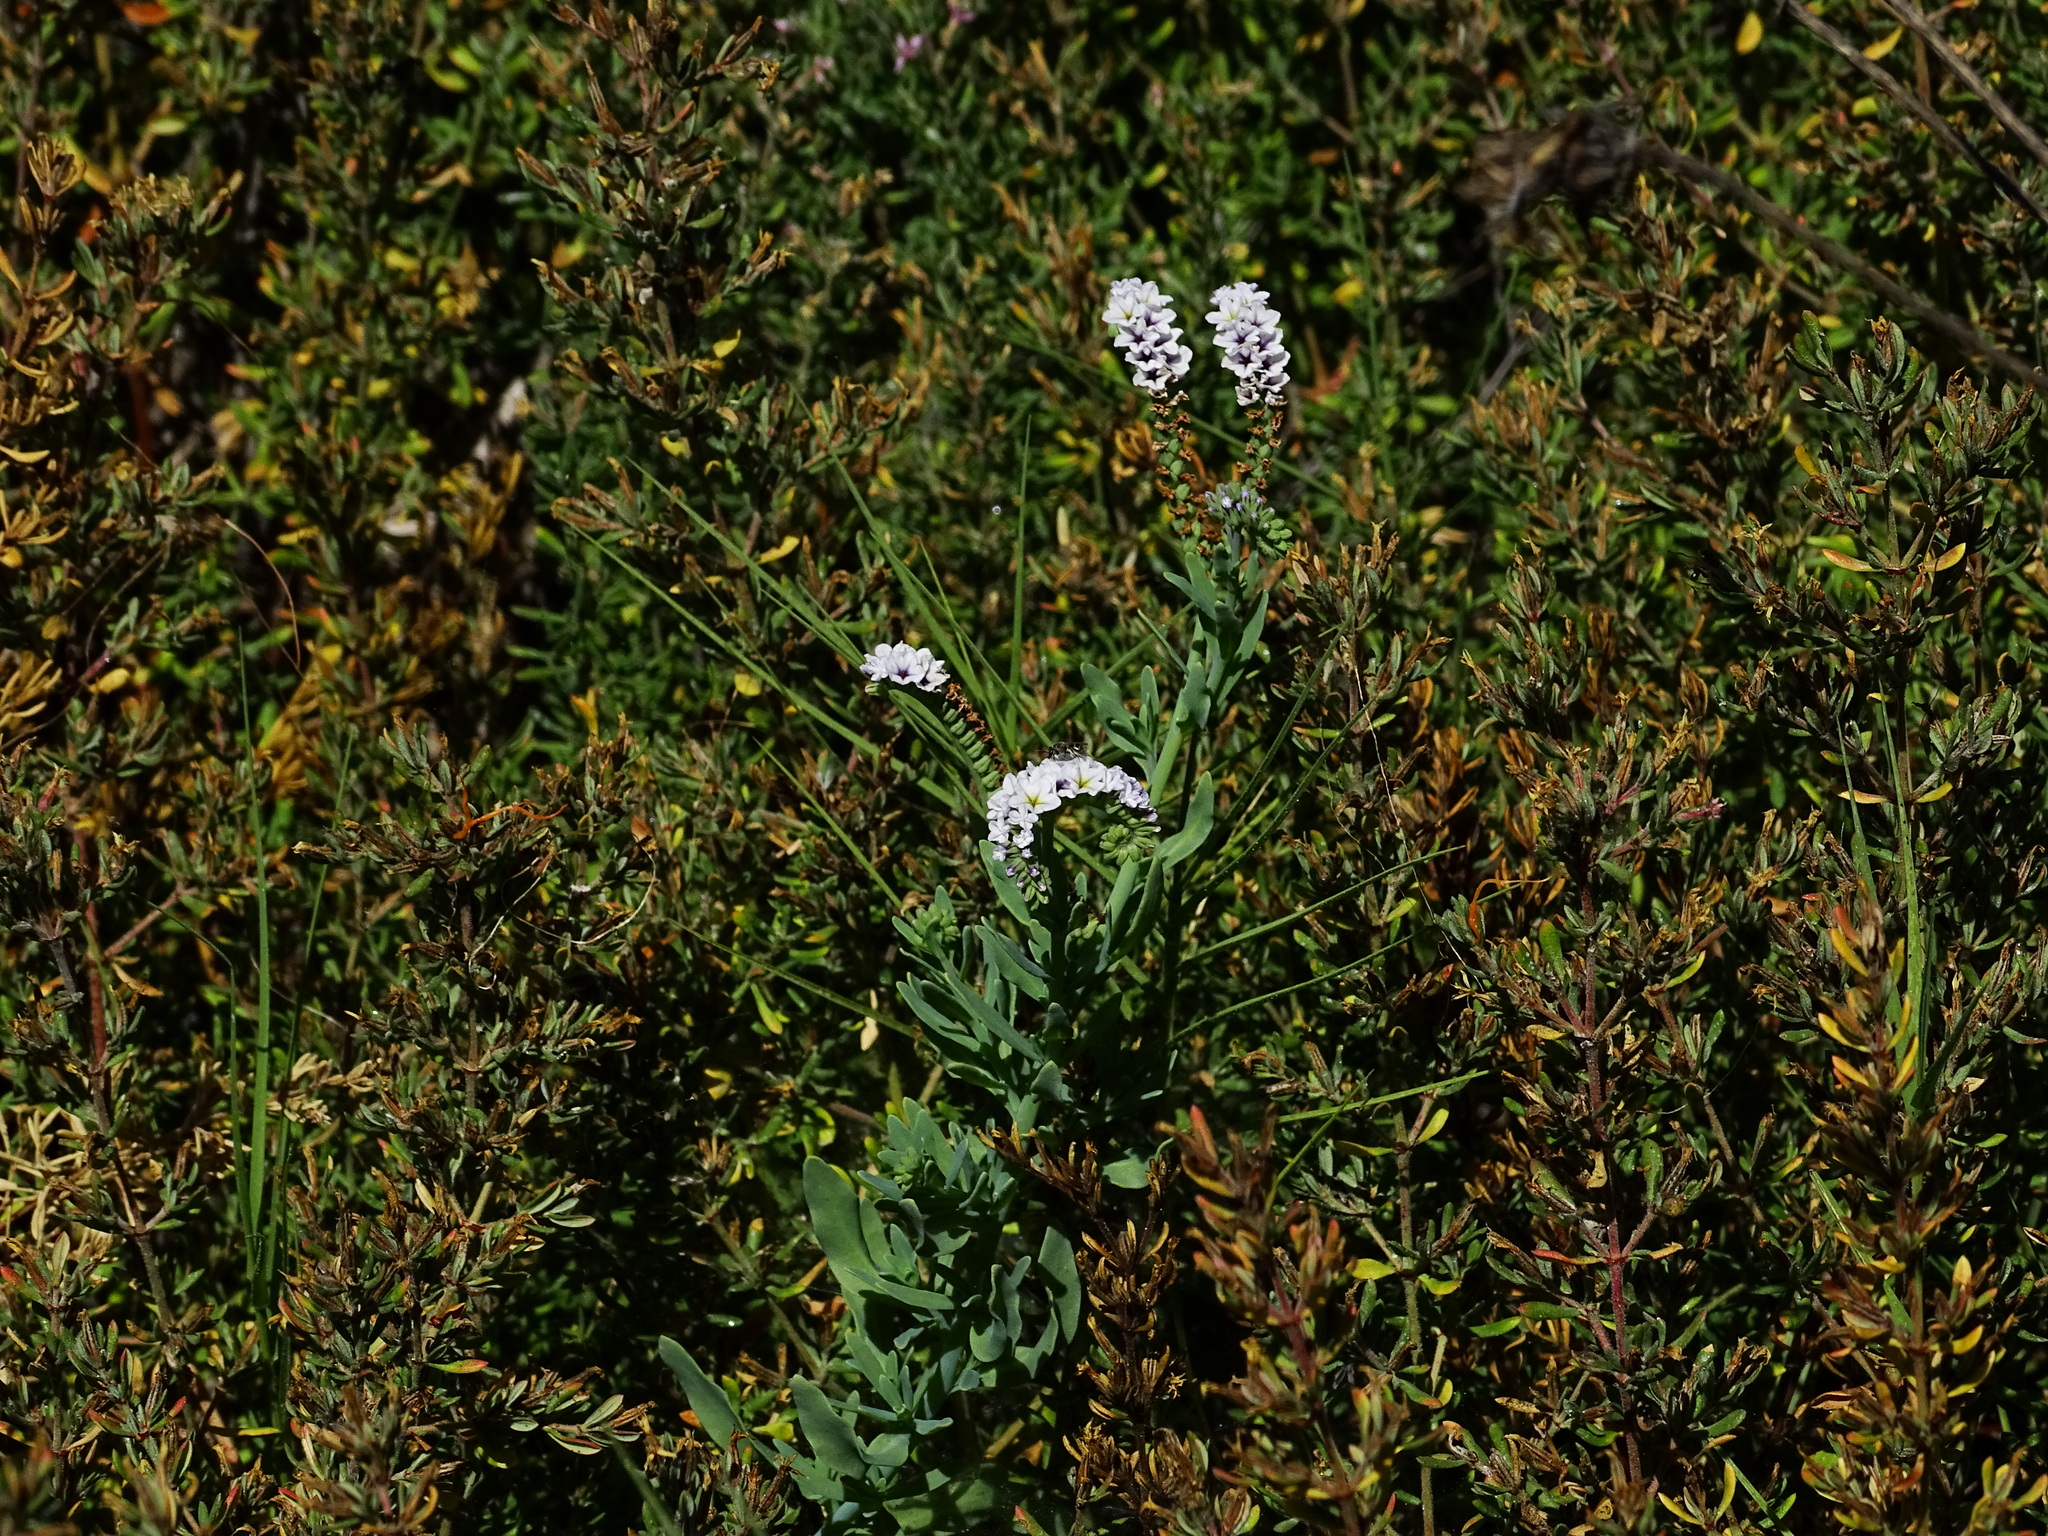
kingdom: Plantae
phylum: Tracheophyta
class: Magnoliopsida
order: Boraginales
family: Heliotropiaceae
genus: Heliotropium
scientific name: Heliotropium curassavicum
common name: Seaside heliotrope
